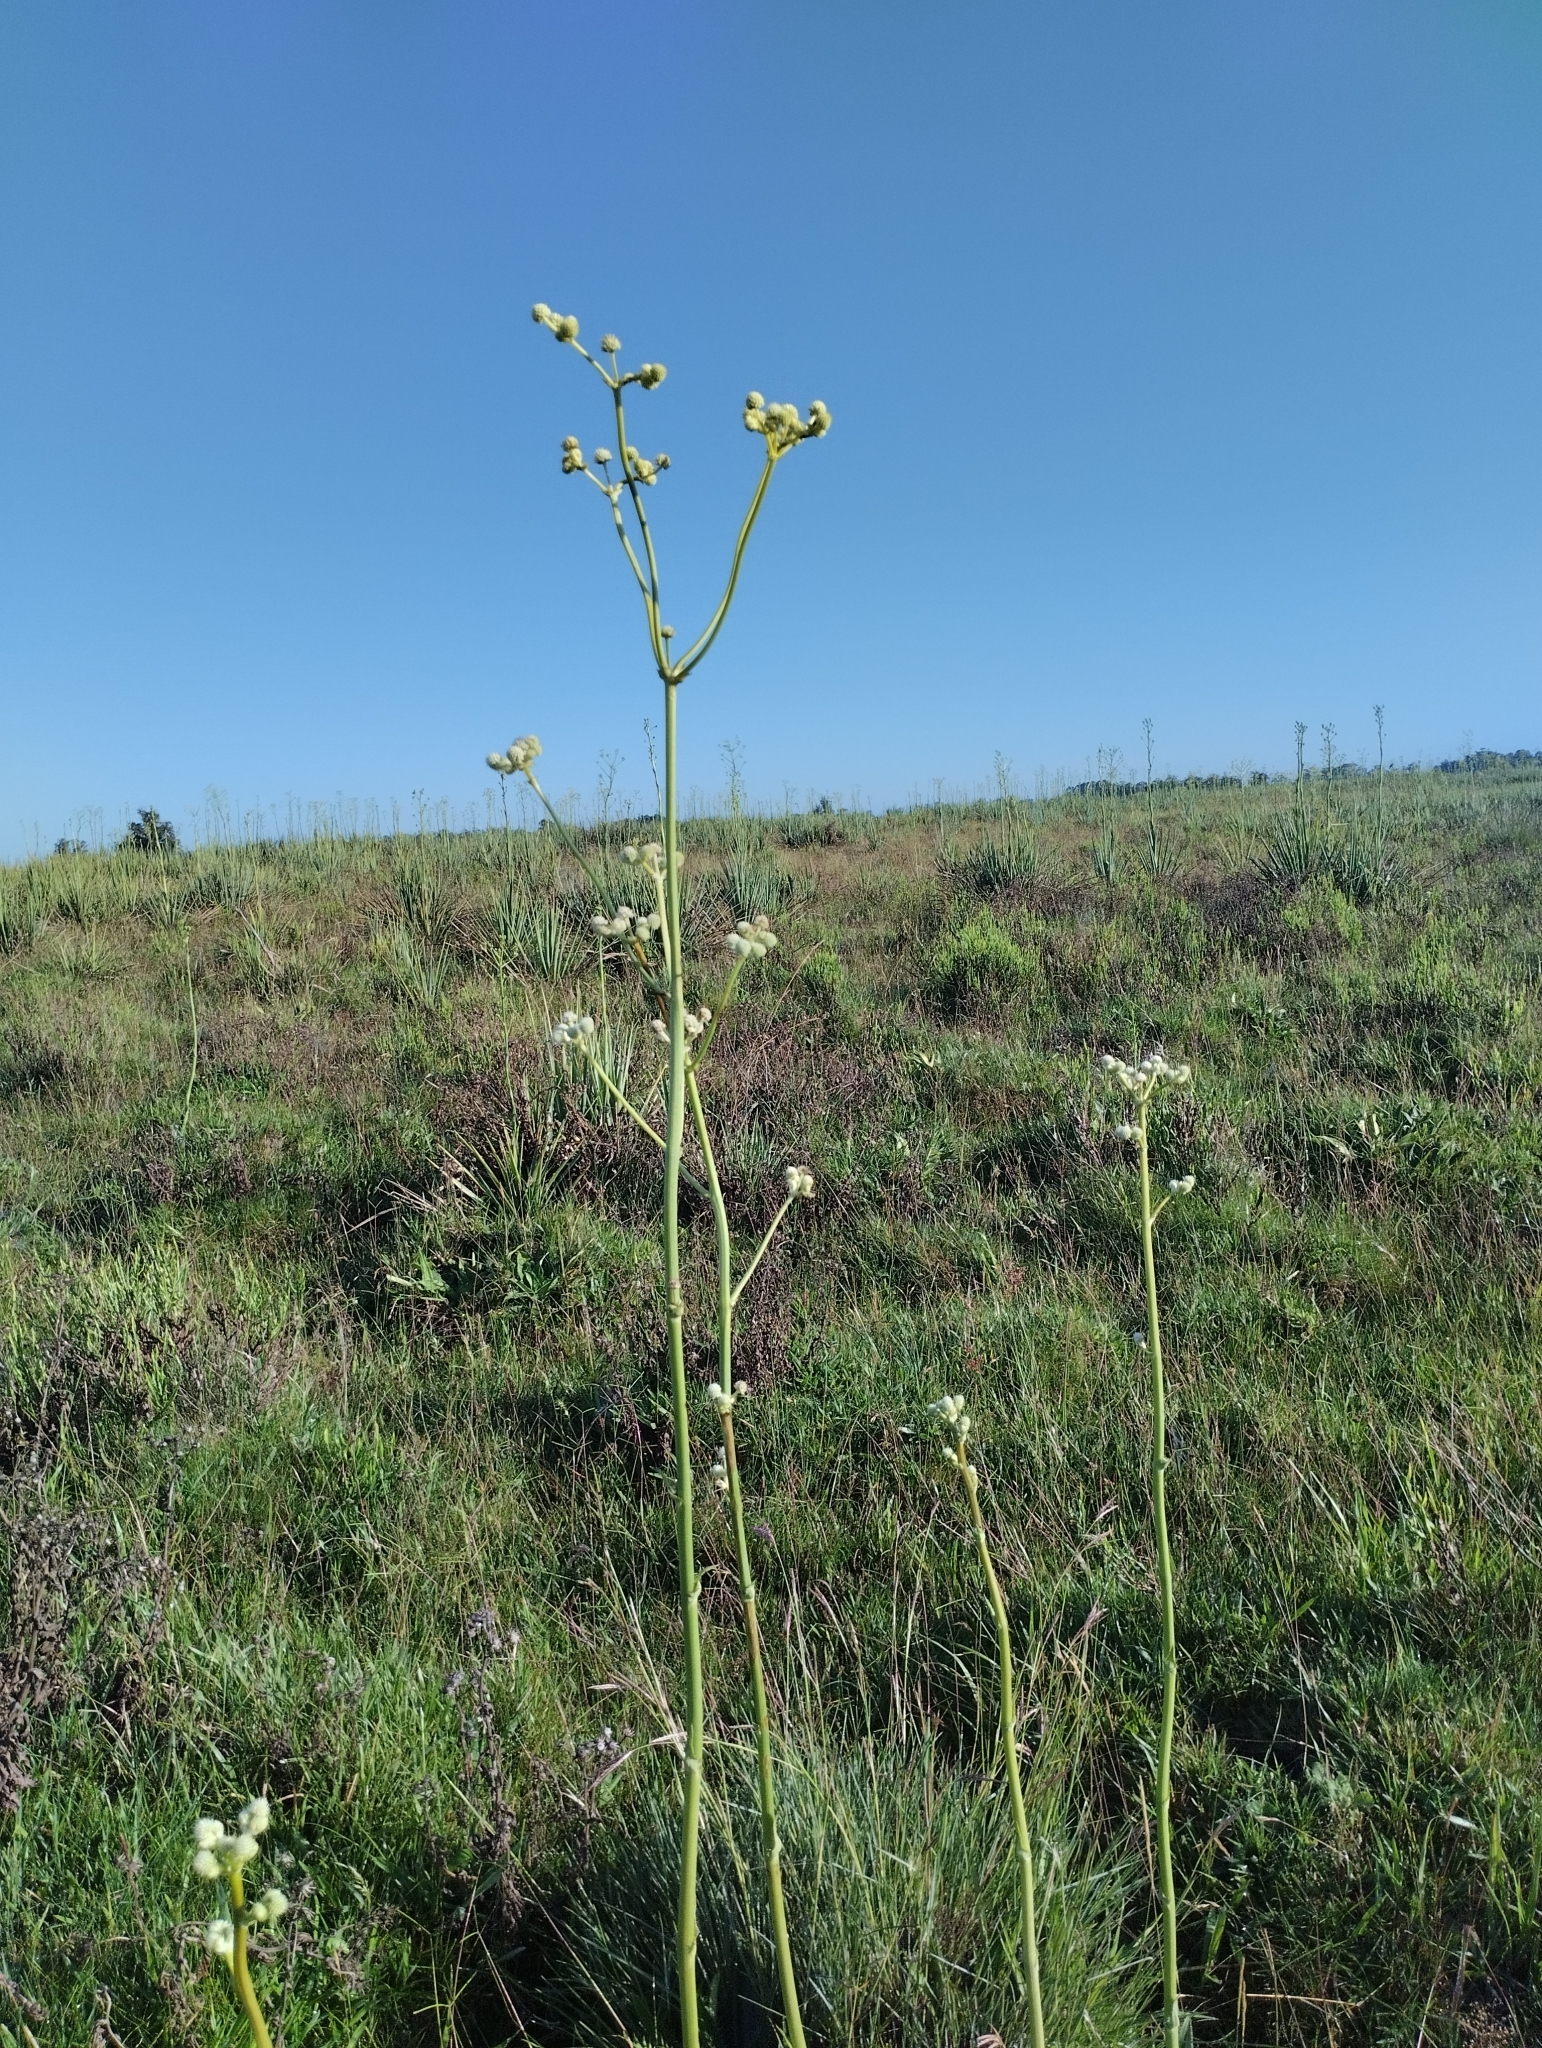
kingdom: Plantae
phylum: Tracheophyta
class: Magnoliopsida
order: Apiales
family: Apiaceae
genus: Eryngium
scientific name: Eryngium elegans
